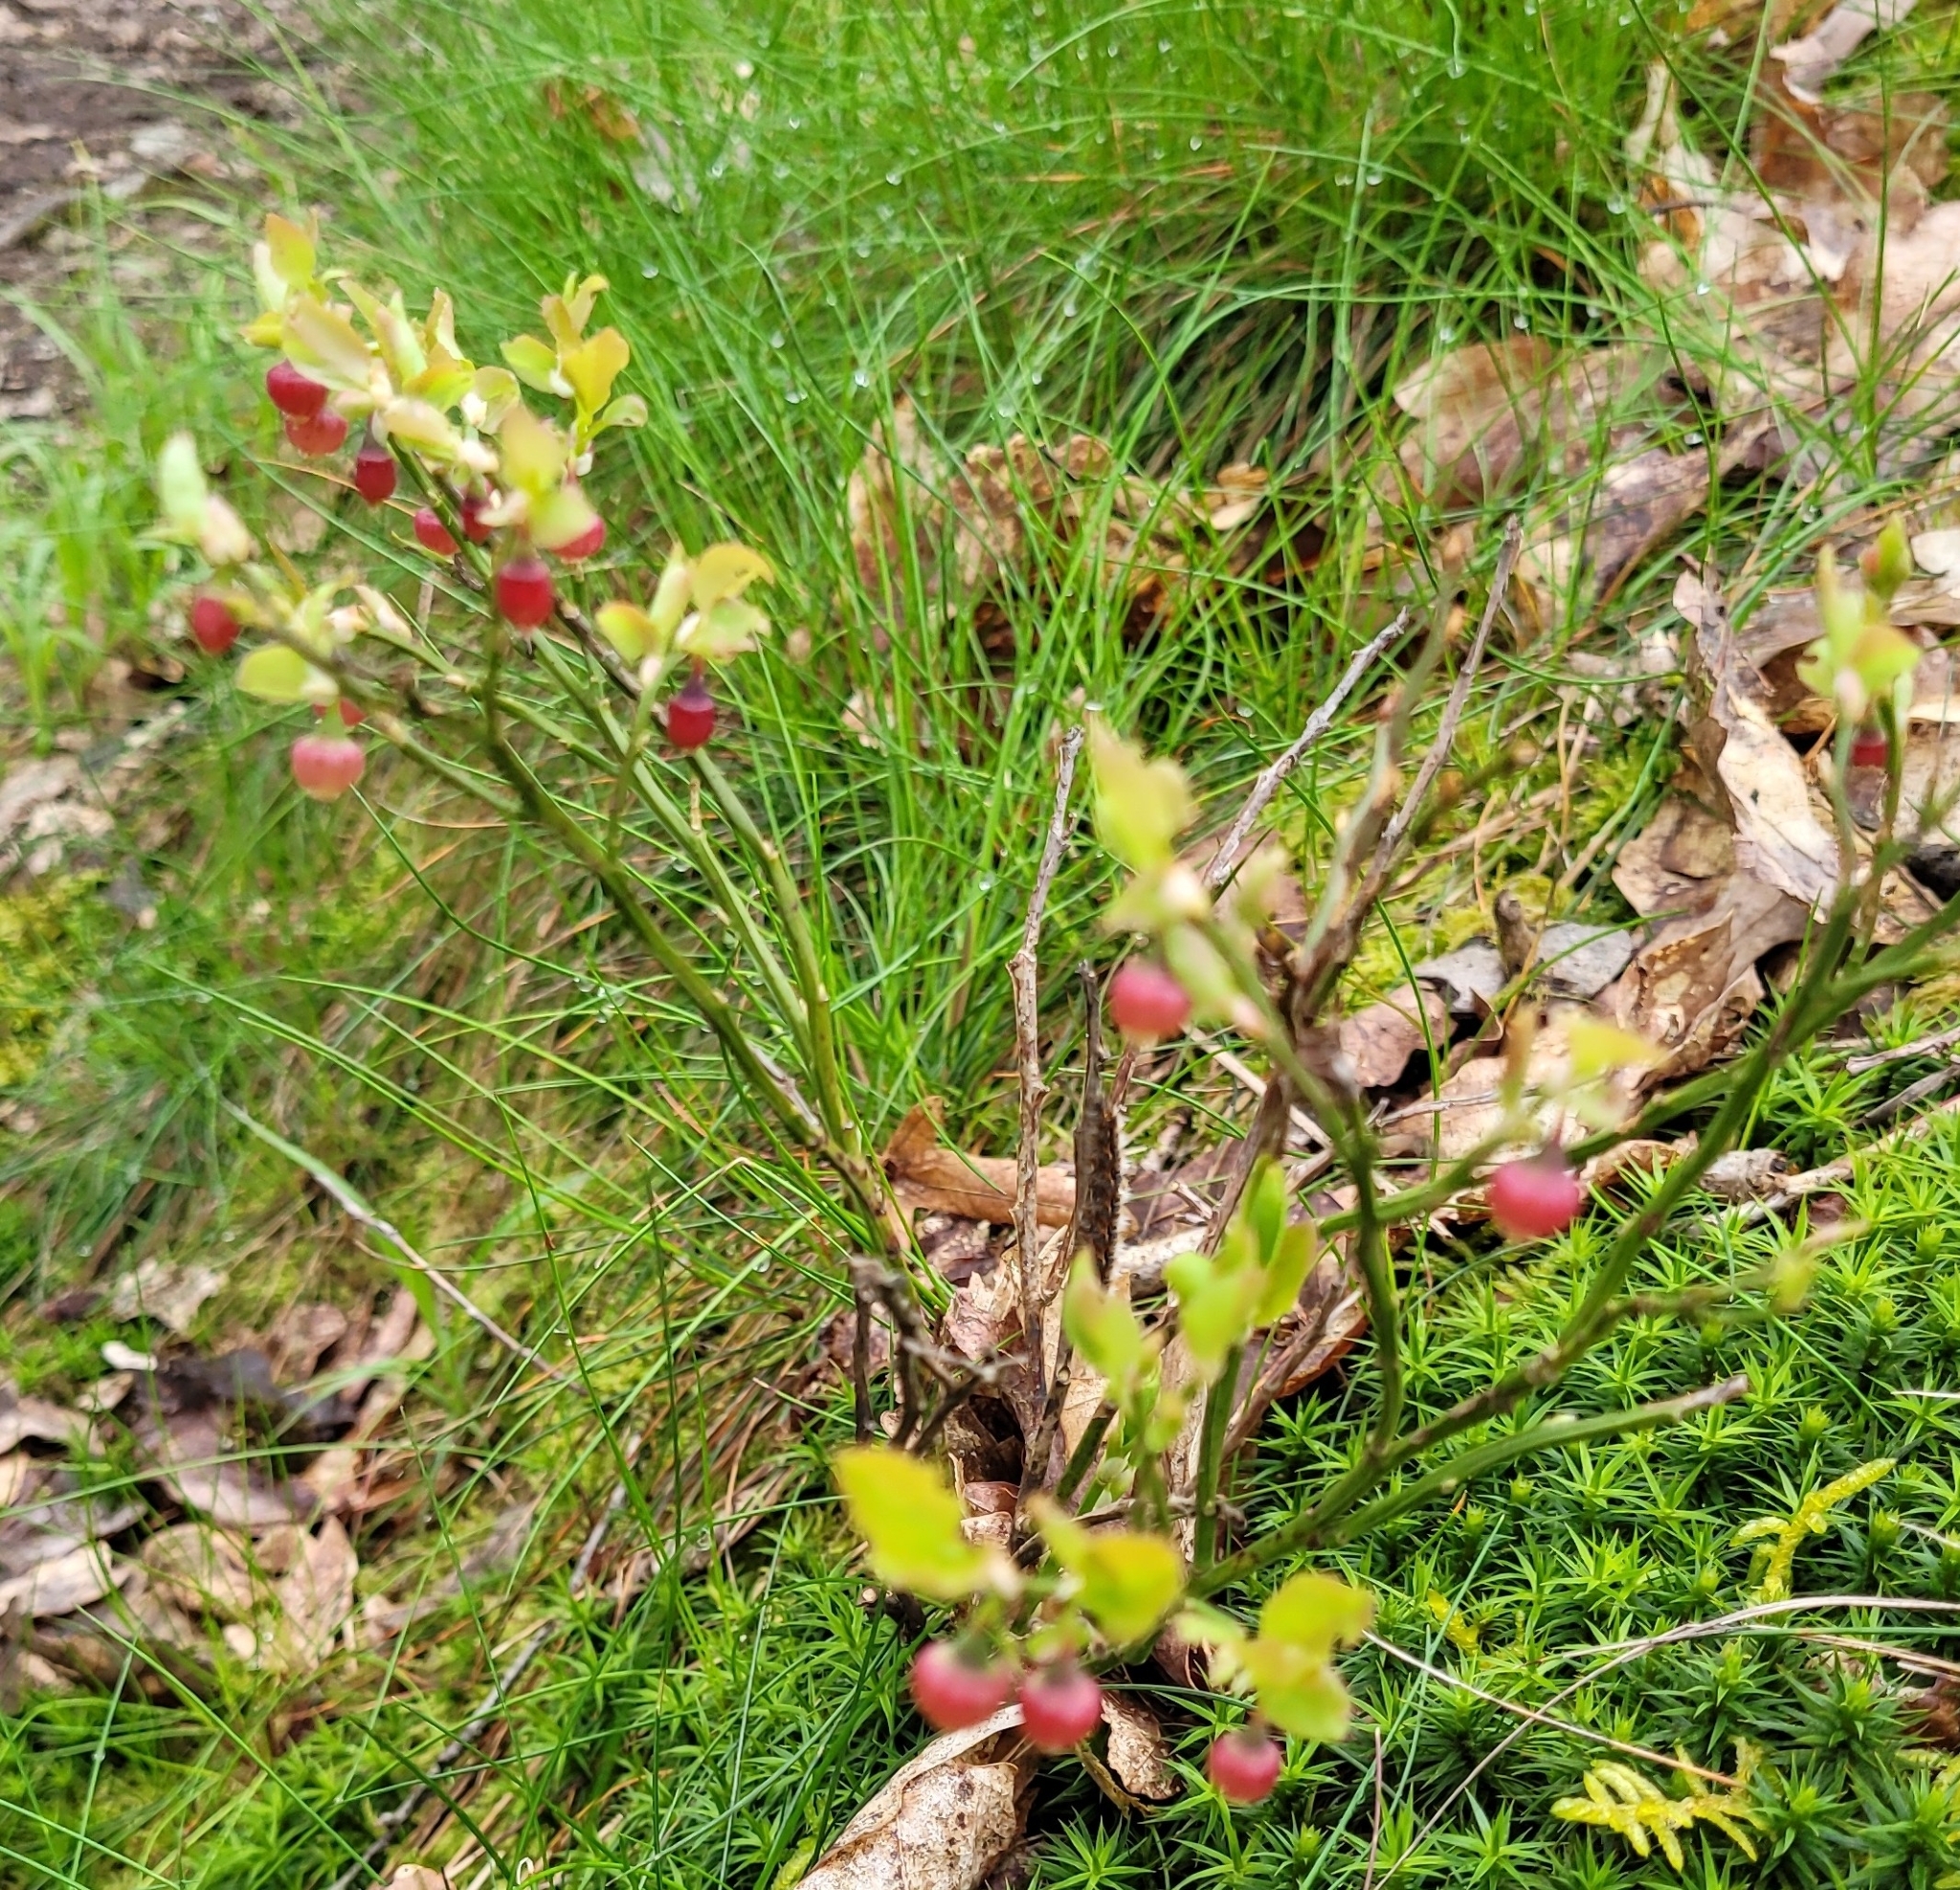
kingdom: Plantae
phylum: Tracheophyta
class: Magnoliopsida
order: Ericales
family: Ericaceae
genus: Vaccinium
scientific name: Vaccinium myrtillus
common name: Bilberry
